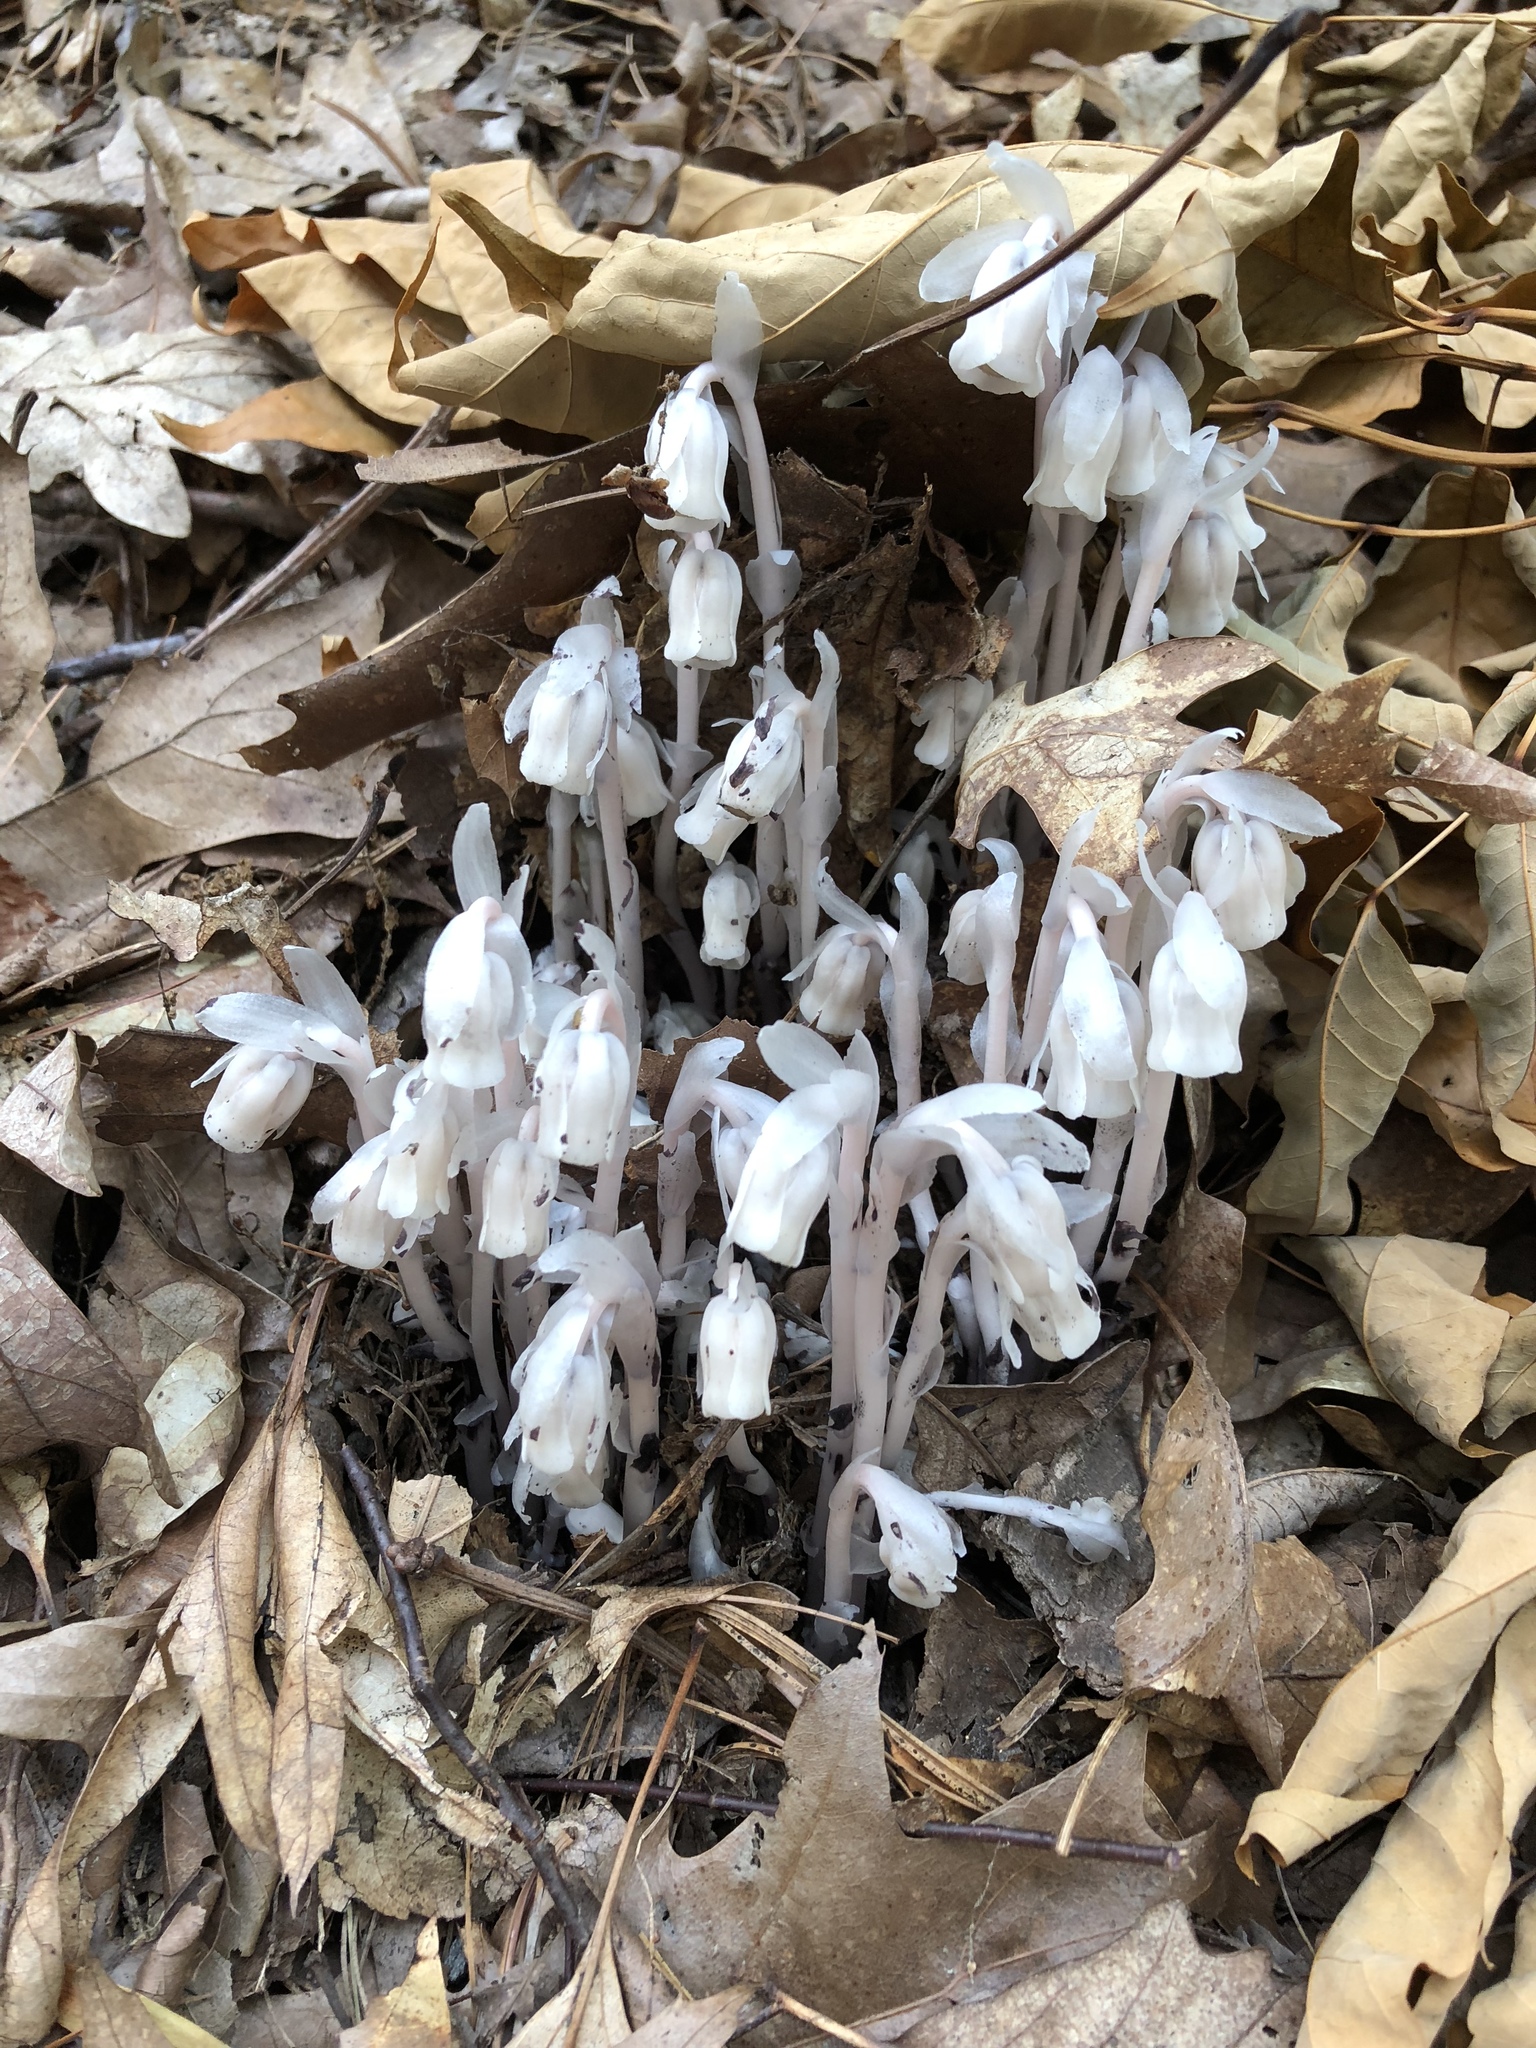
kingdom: Plantae
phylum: Tracheophyta
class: Magnoliopsida
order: Ericales
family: Ericaceae
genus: Monotropa
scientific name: Monotropa uniflora
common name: Convulsion root
